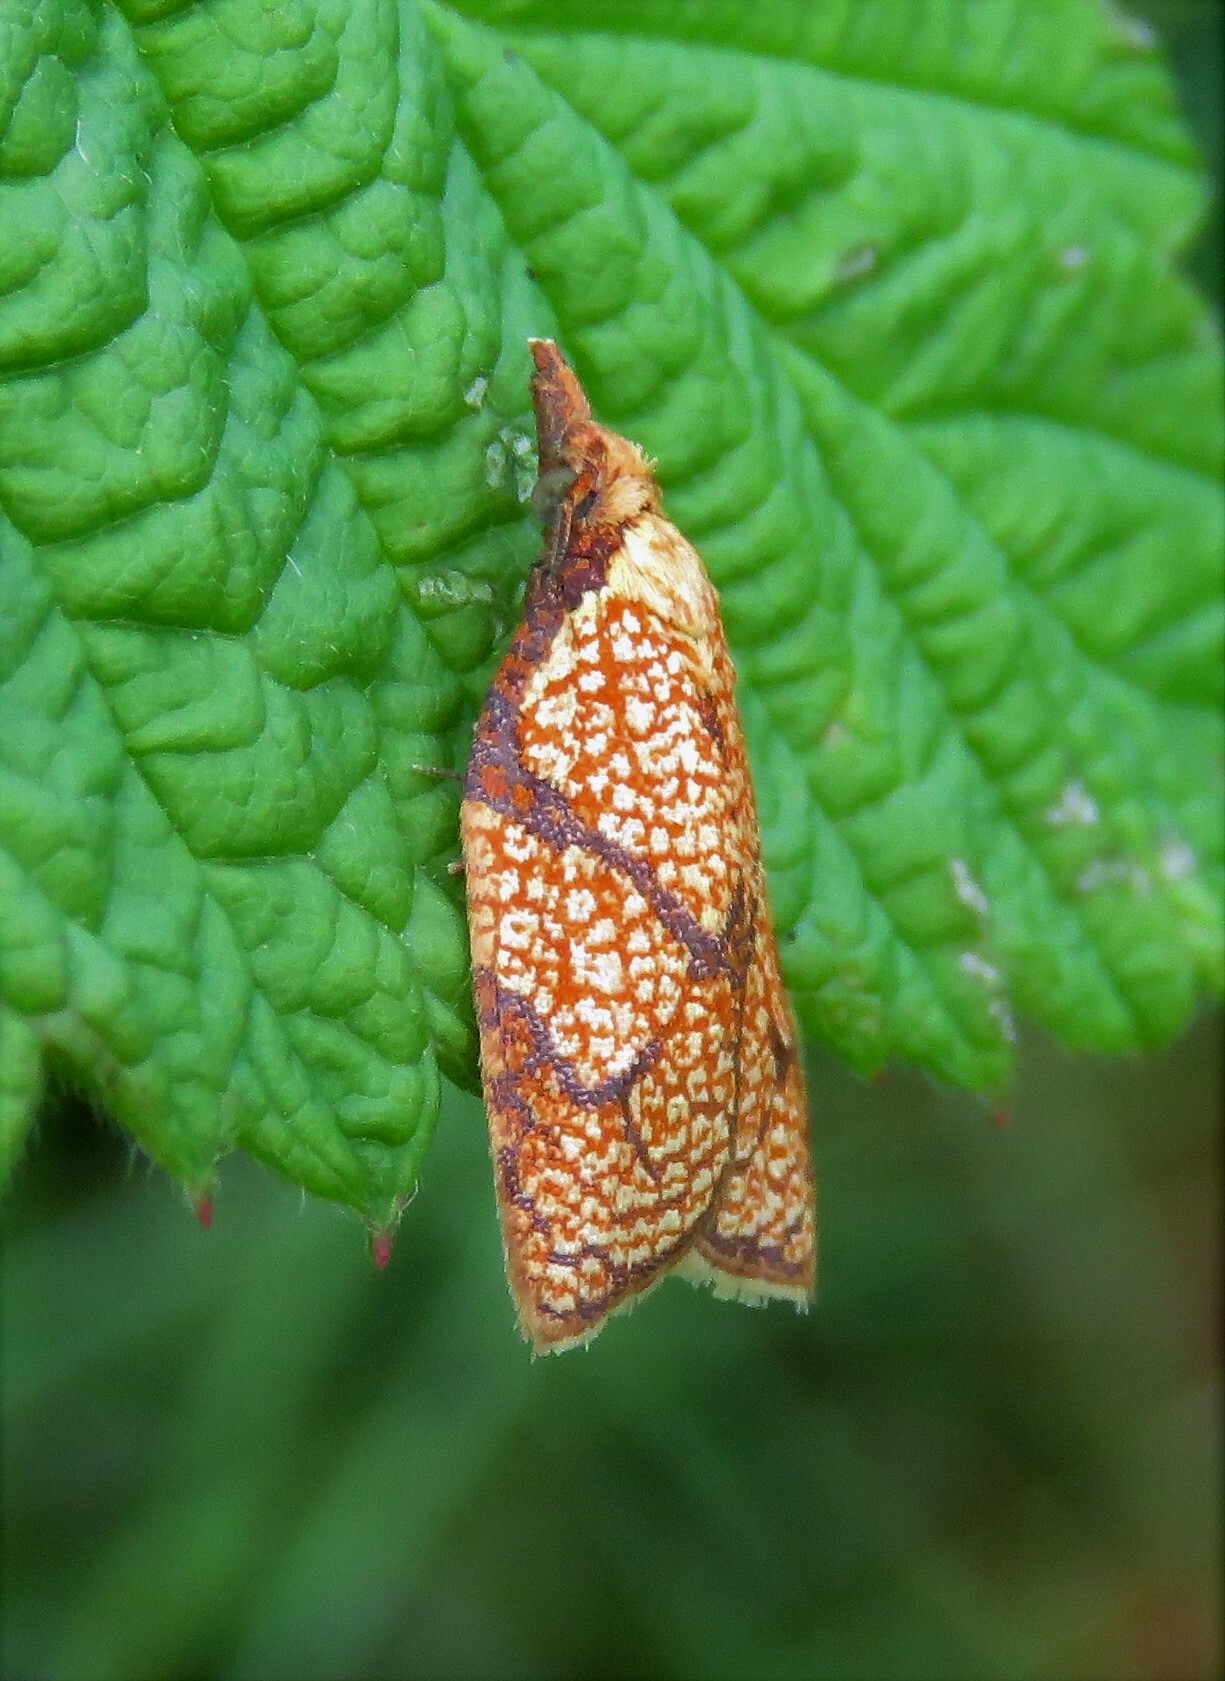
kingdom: Animalia
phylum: Arthropoda
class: Insecta
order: Lepidoptera
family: Tortricidae
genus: Cenopis
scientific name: Cenopis reticulatana
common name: Reticulated fruitworm moth
